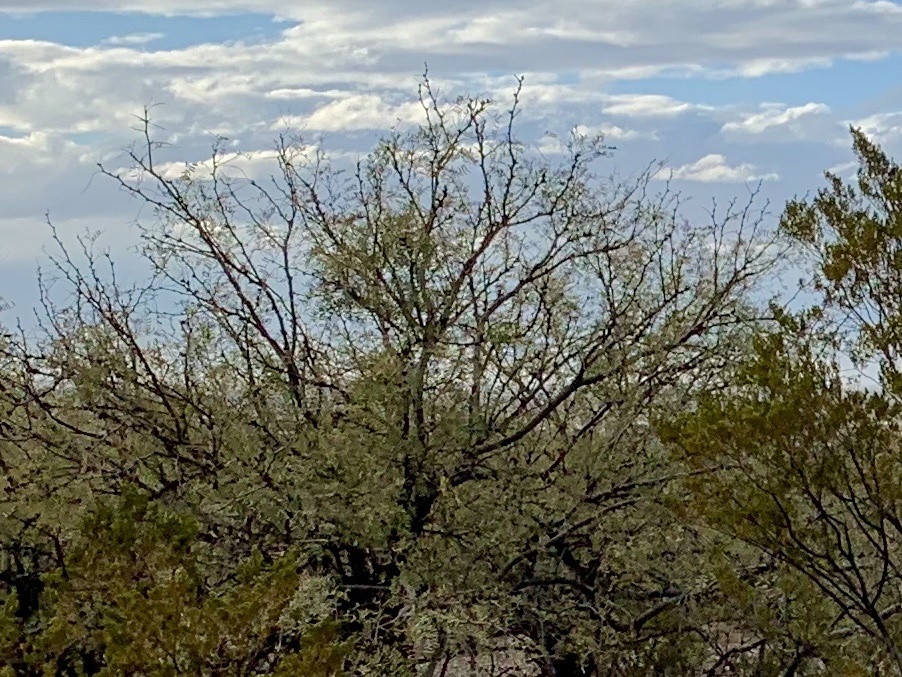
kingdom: Plantae
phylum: Tracheophyta
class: Magnoliopsida
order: Fabales
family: Fabaceae
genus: Prosopis
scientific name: Prosopis glandulosa
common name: Honey mesquite
